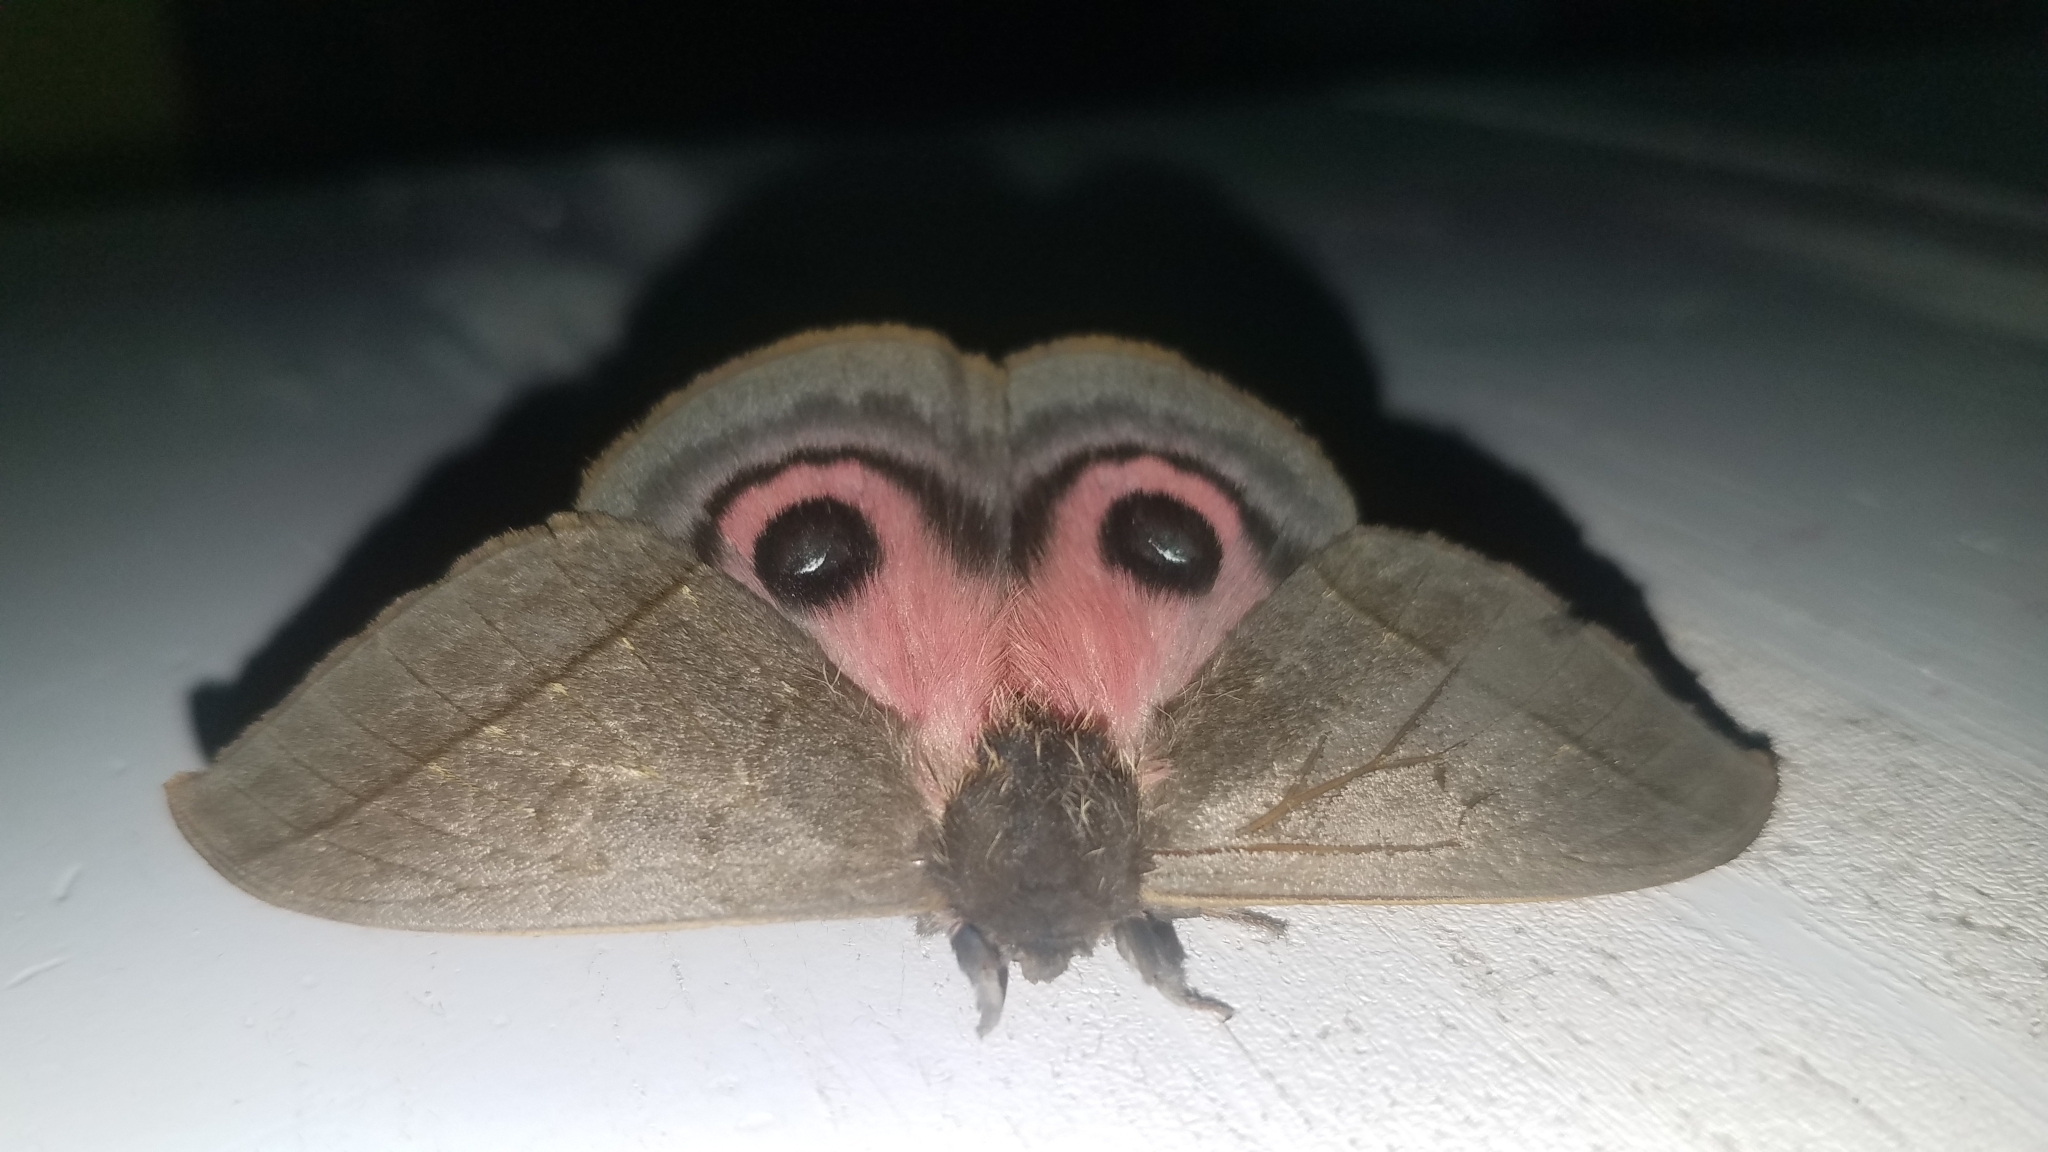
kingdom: Animalia
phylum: Arthropoda
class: Insecta
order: Lepidoptera
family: Saturniidae
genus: Automeris
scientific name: Automeris montezuma
